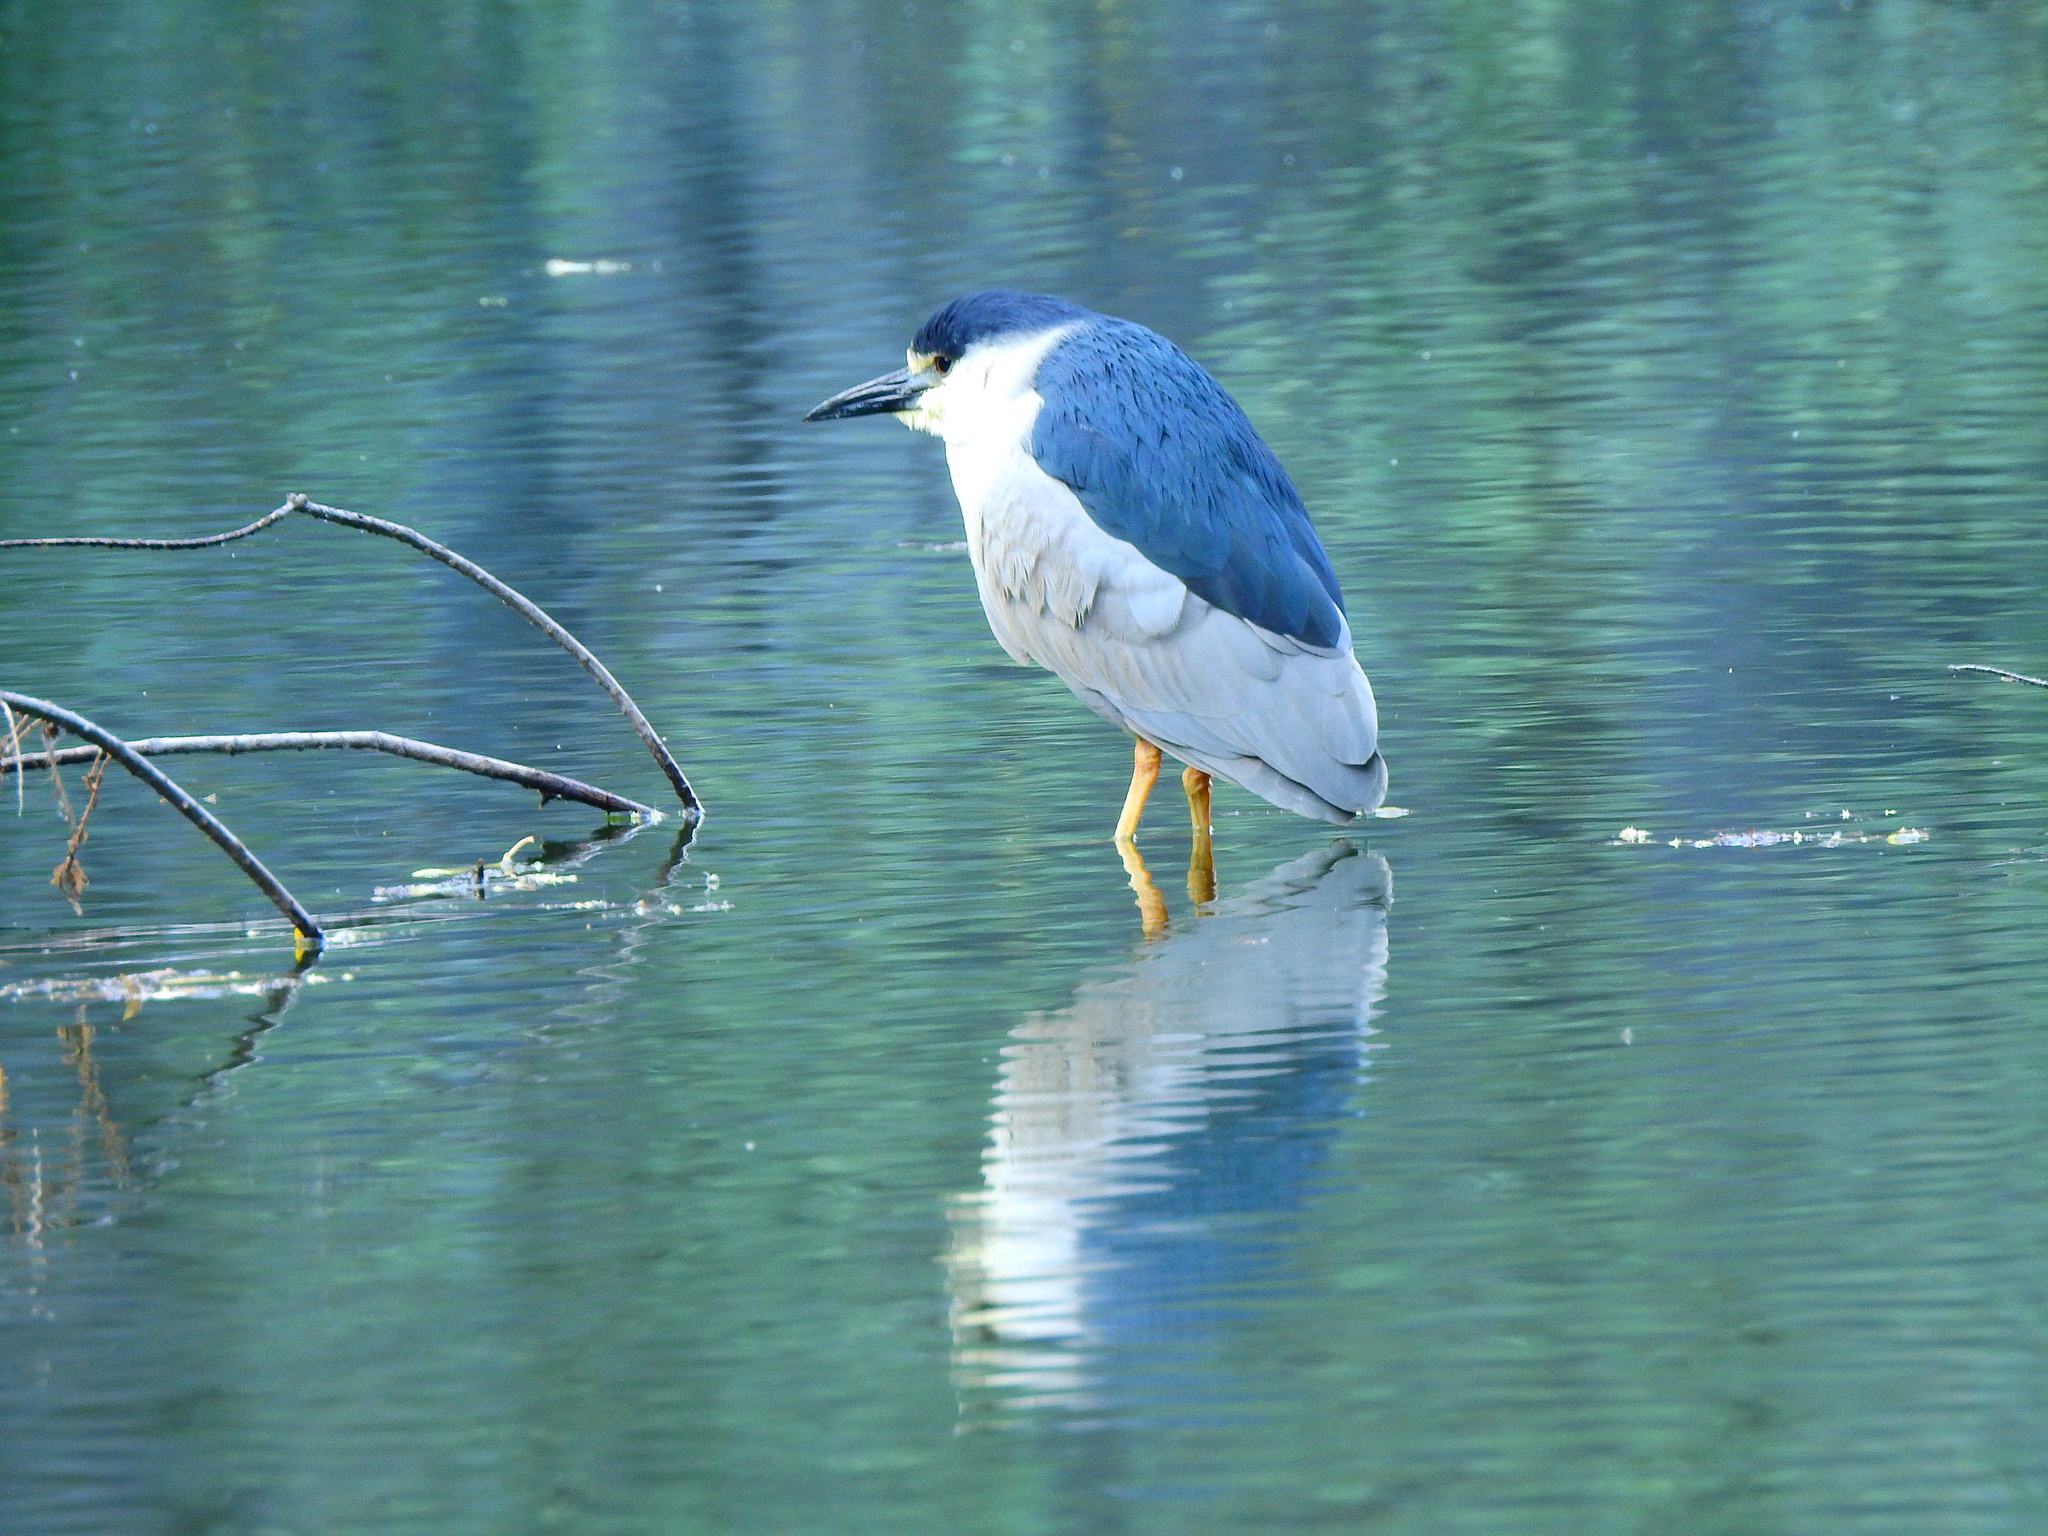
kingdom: Animalia
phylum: Chordata
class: Aves
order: Pelecaniformes
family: Ardeidae
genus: Nycticorax
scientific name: Nycticorax nycticorax
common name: Black-crowned night heron
